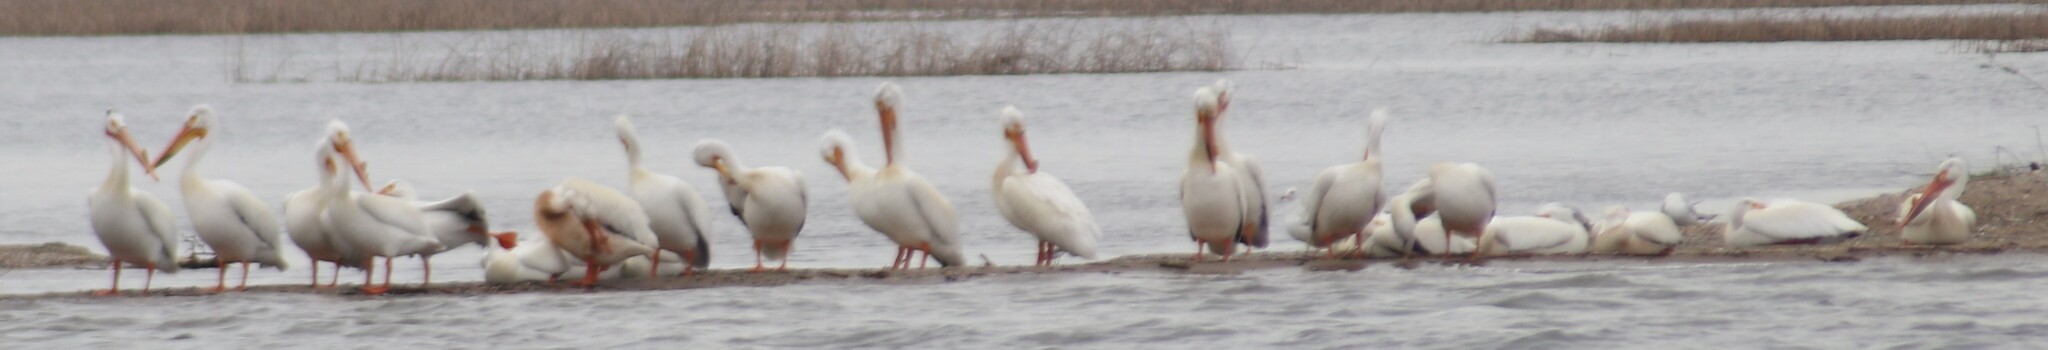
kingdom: Animalia
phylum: Chordata
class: Aves
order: Pelecaniformes
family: Pelecanidae
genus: Pelecanus
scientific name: Pelecanus erythrorhynchos
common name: American white pelican
